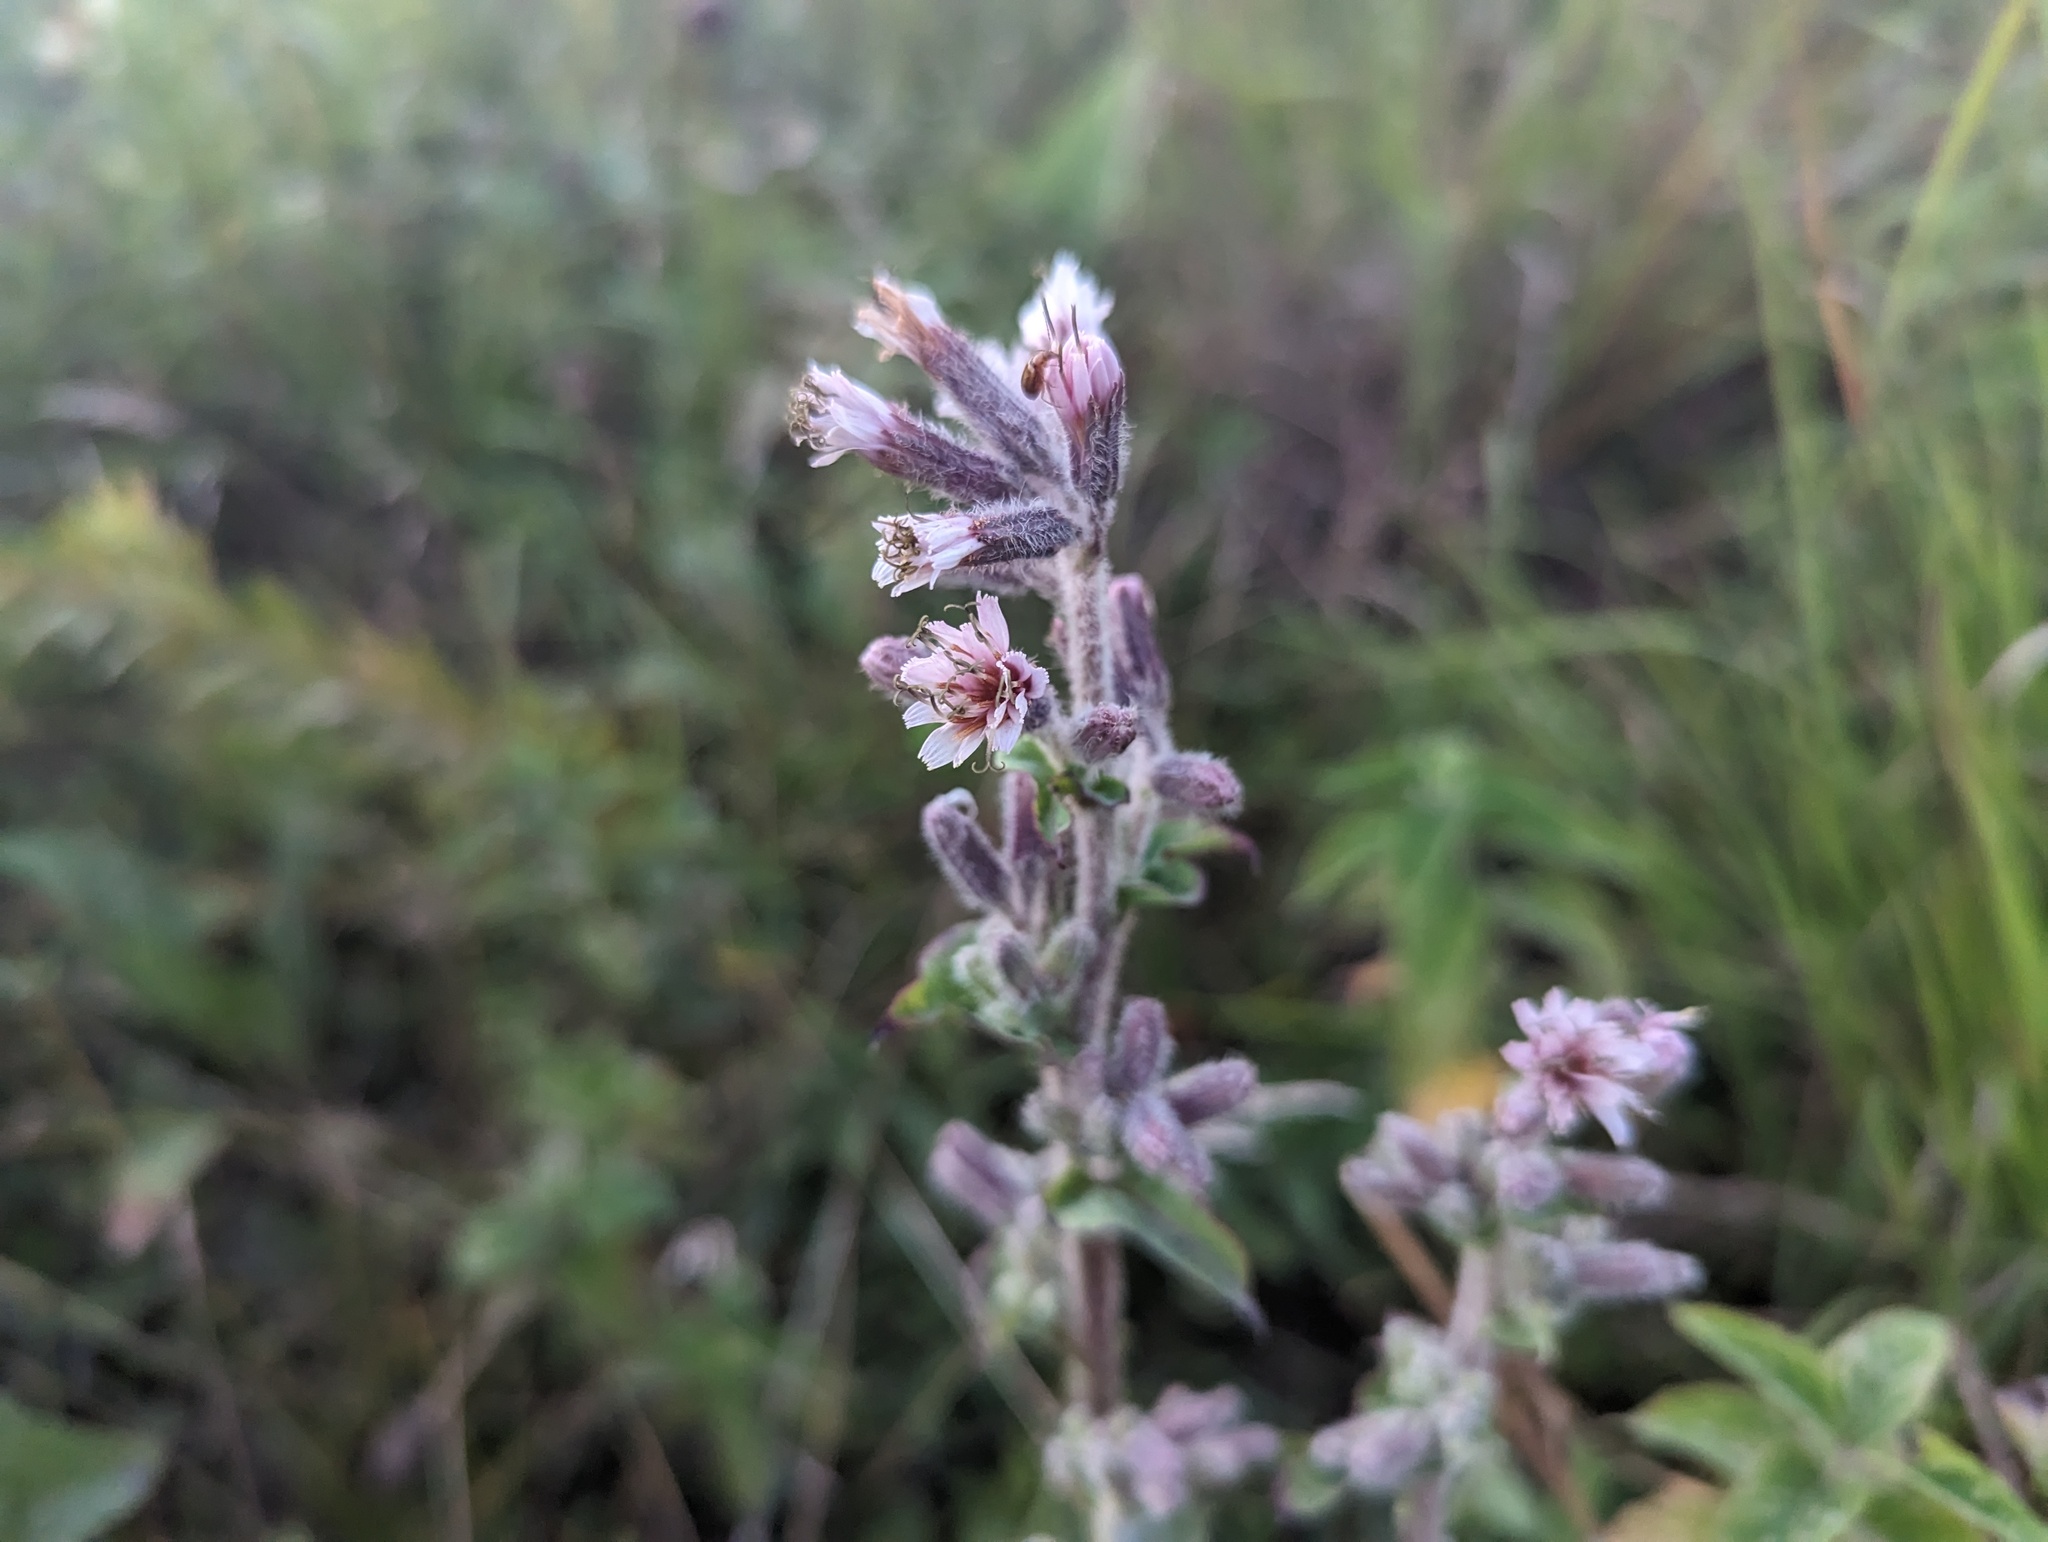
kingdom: Plantae
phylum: Tracheophyta
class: Magnoliopsida
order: Asterales
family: Asteraceae
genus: Nabalus
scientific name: Nabalus racemosus
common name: Glaucous white lettuce
